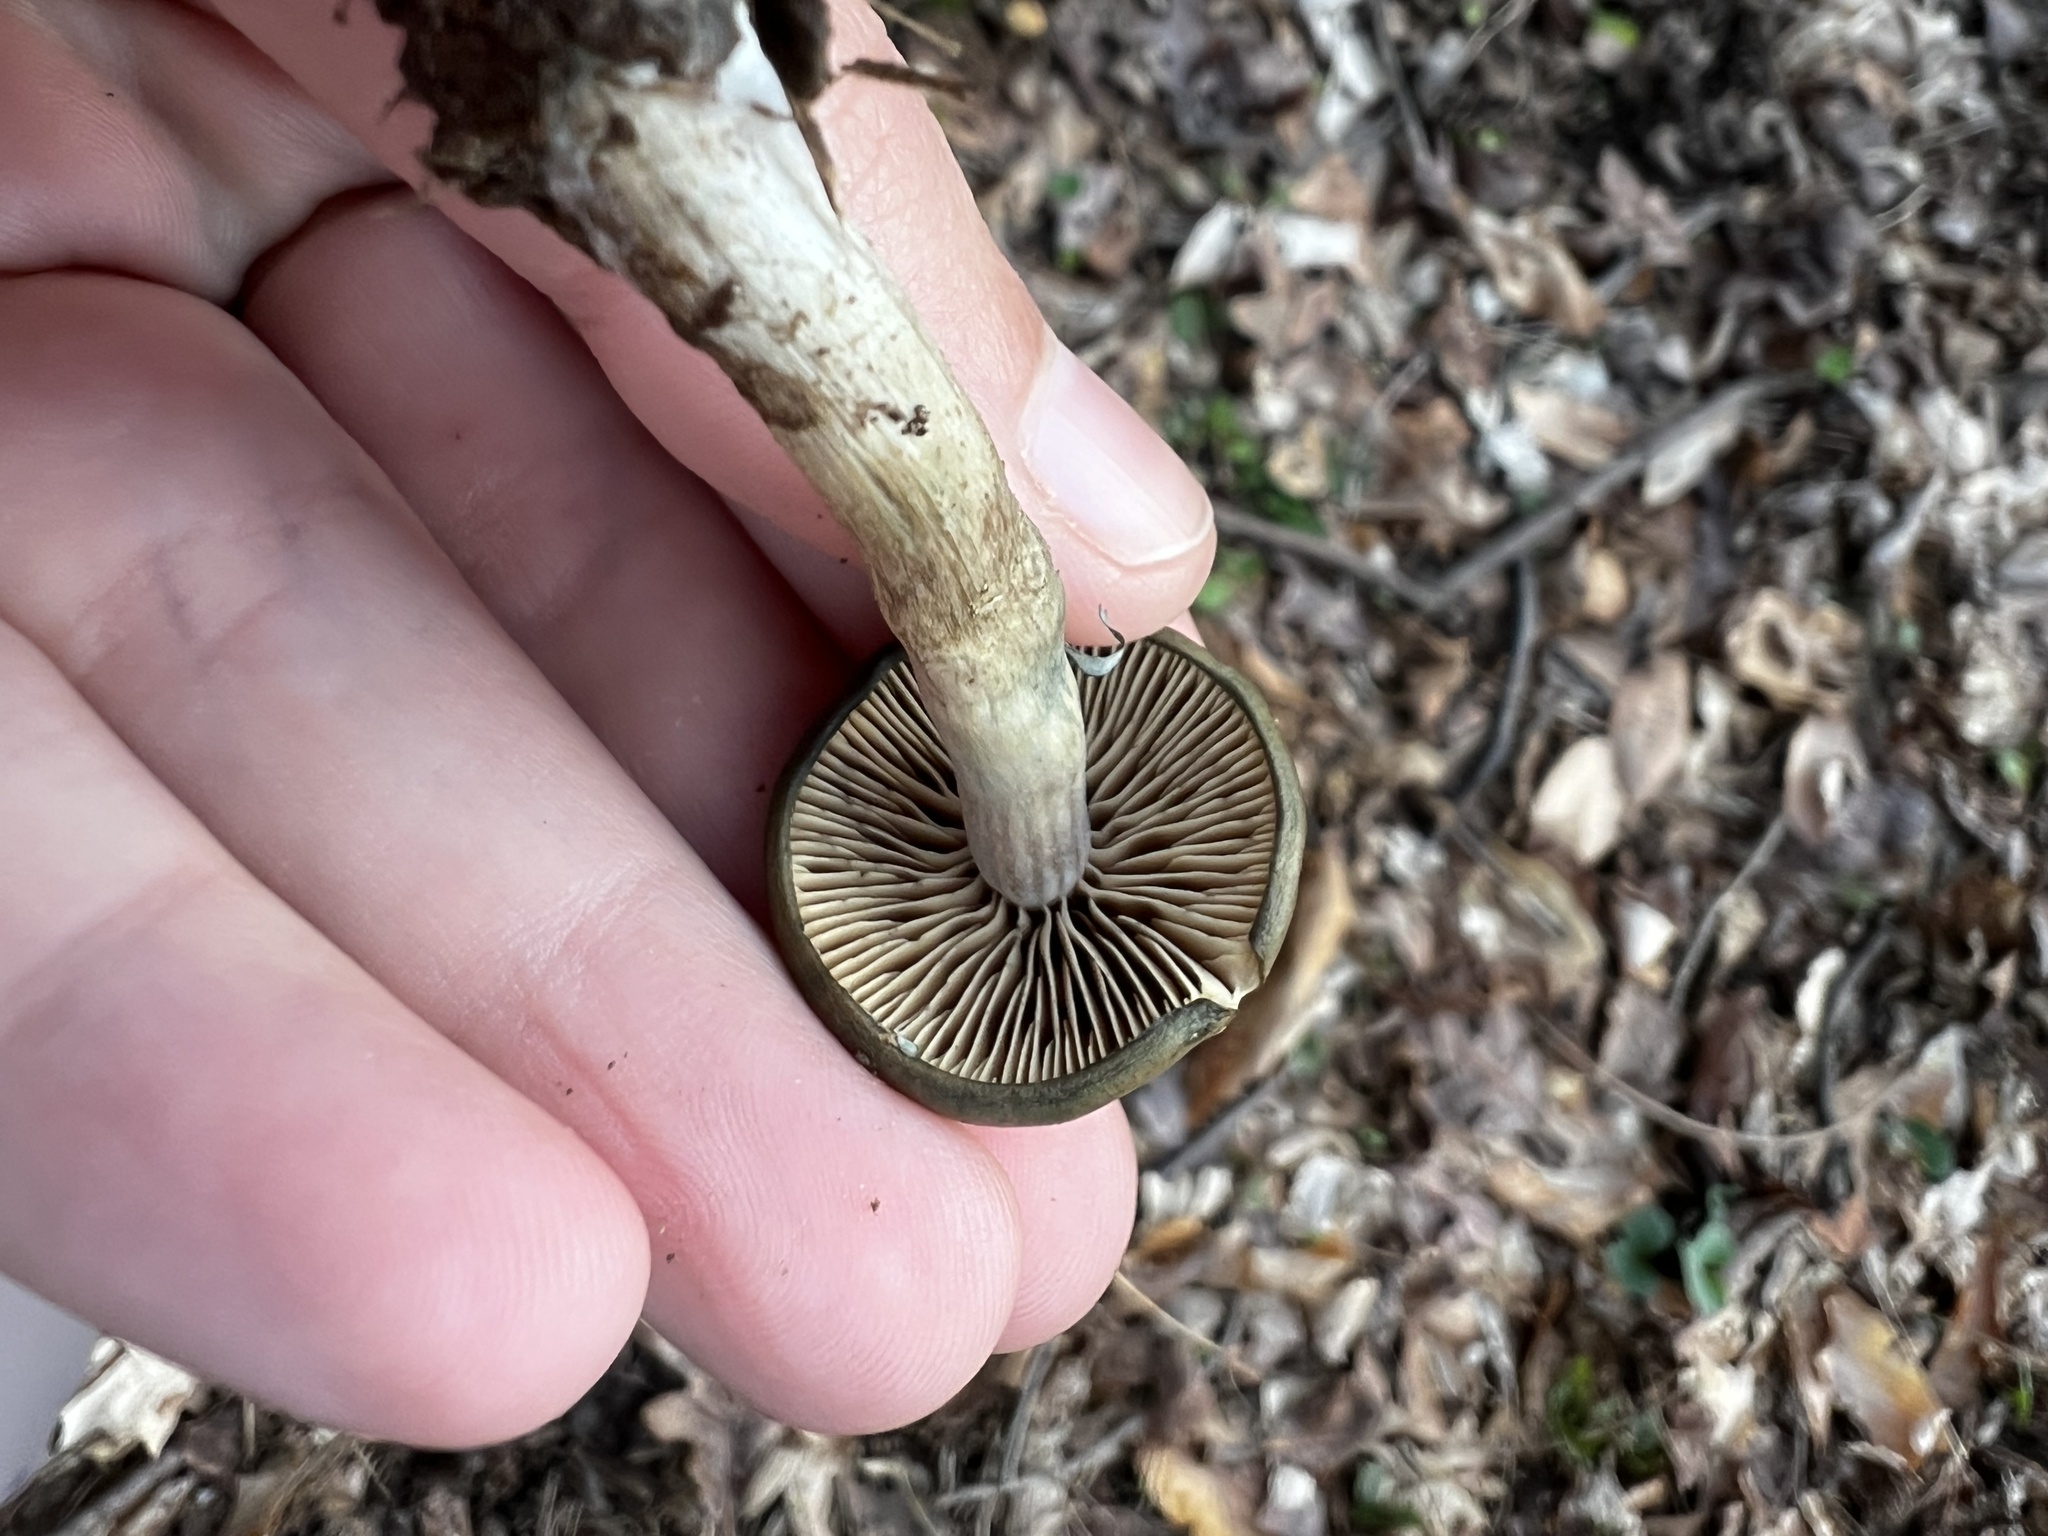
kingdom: Fungi
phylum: Basidiomycota
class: Agaricomycetes
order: Agaricales
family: Hymenogastraceae
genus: Psilocybe
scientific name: Psilocybe ovoideocystidiata
